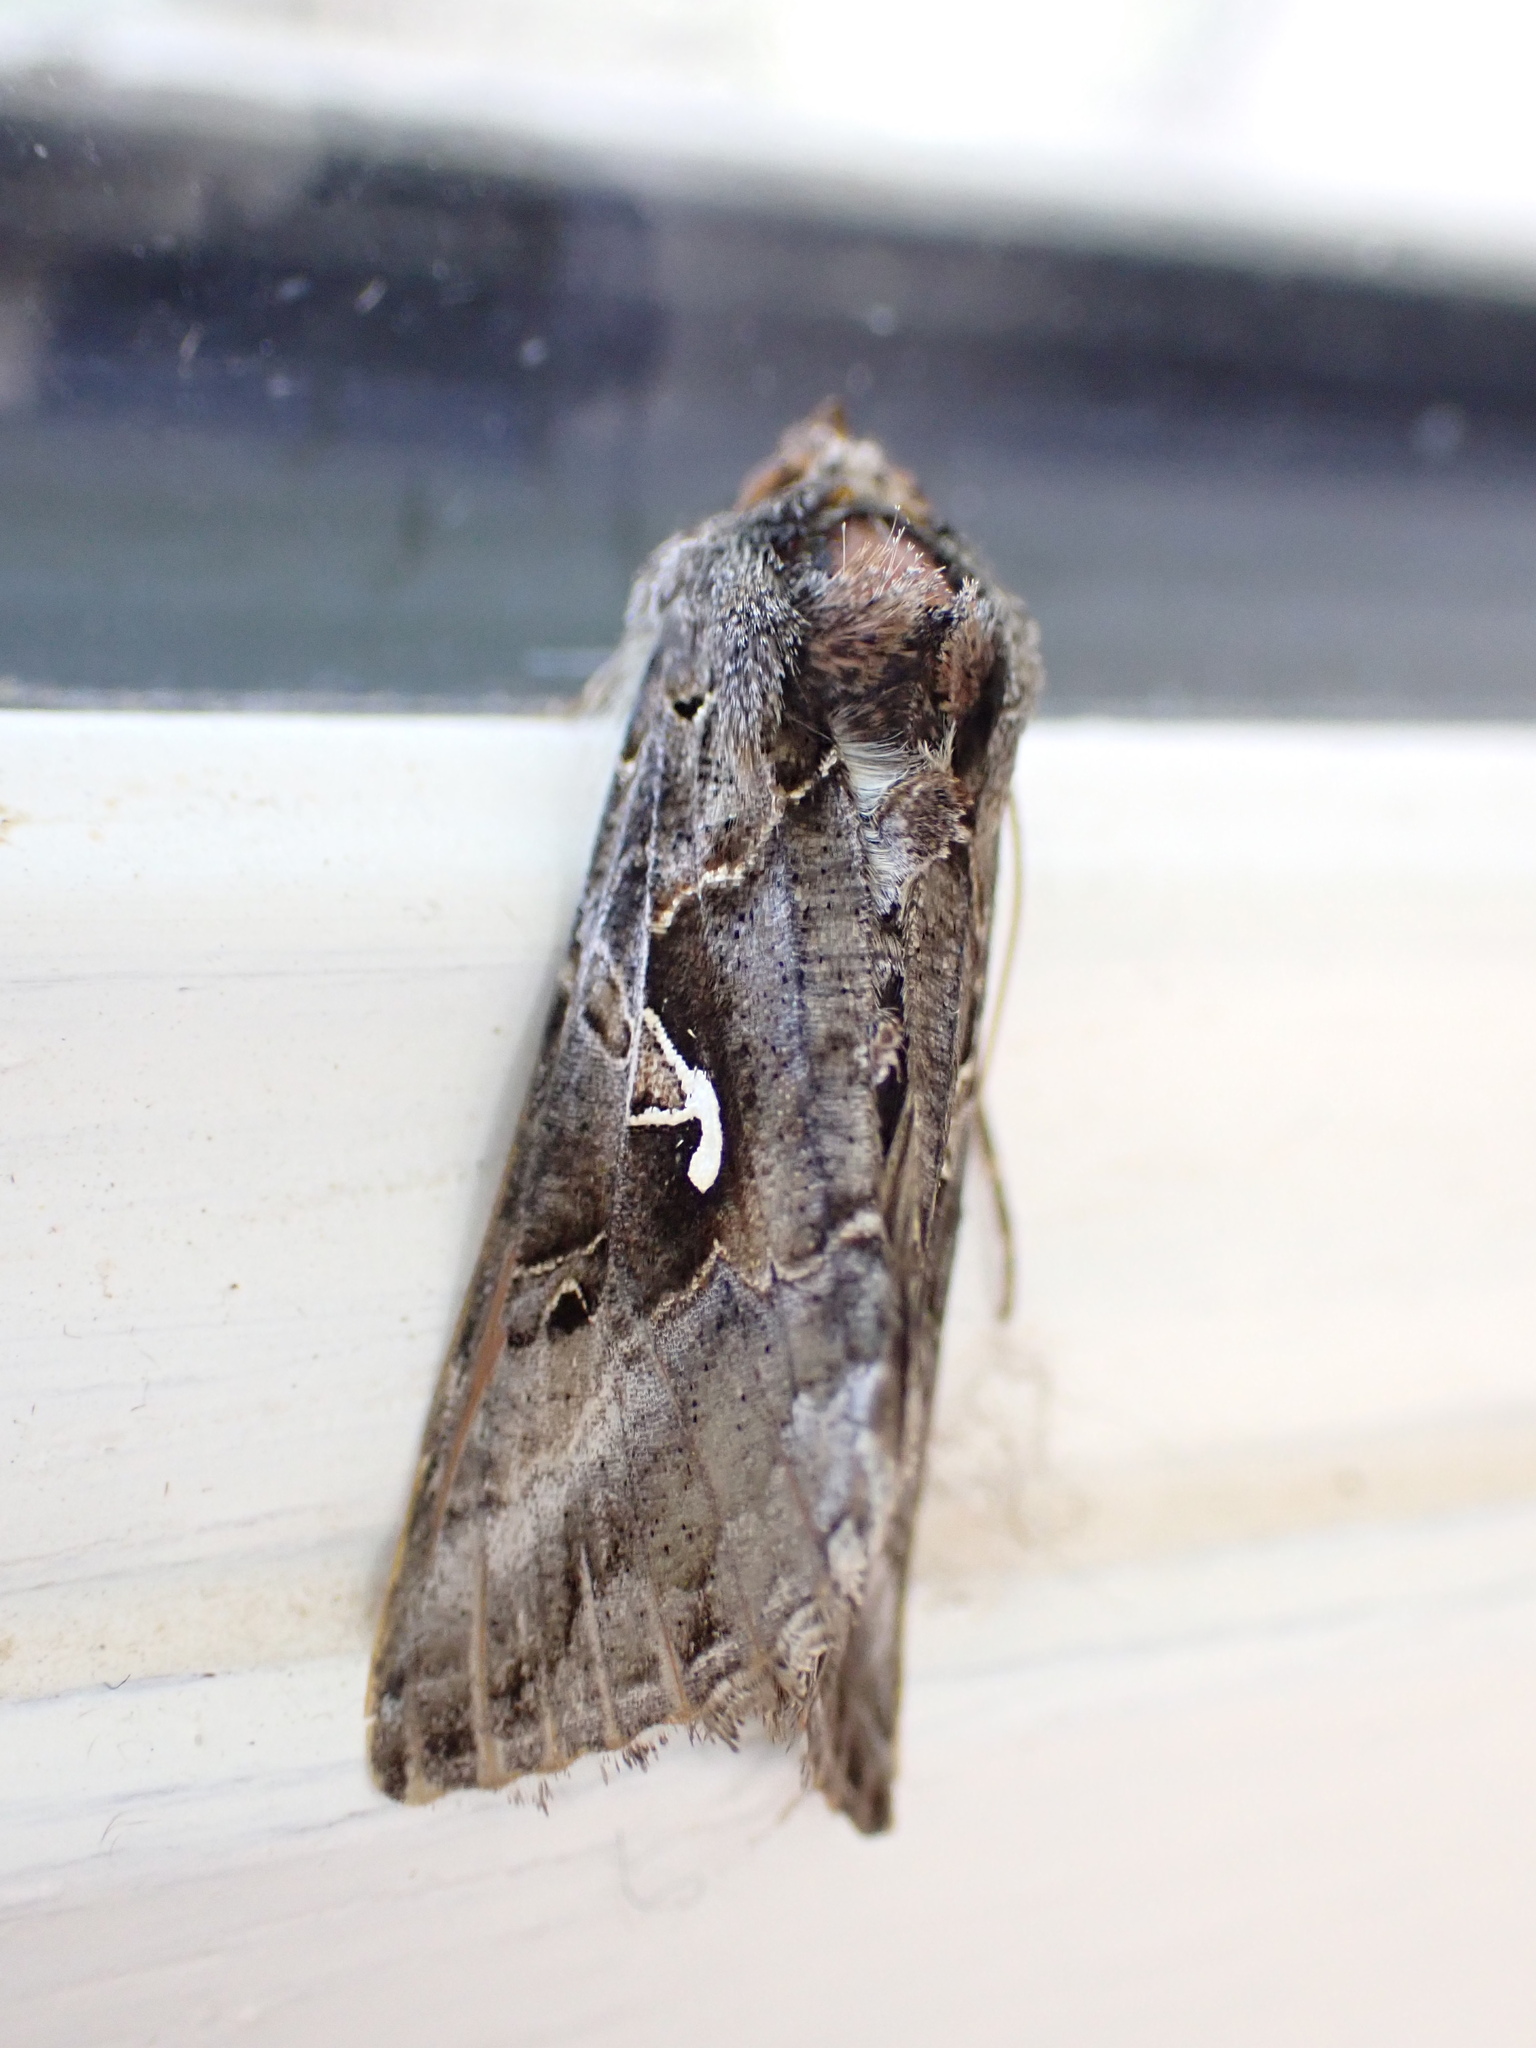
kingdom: Animalia
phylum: Arthropoda
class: Insecta
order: Lepidoptera
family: Noctuidae
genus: Autographa
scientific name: Autographa gamma
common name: Silver y
